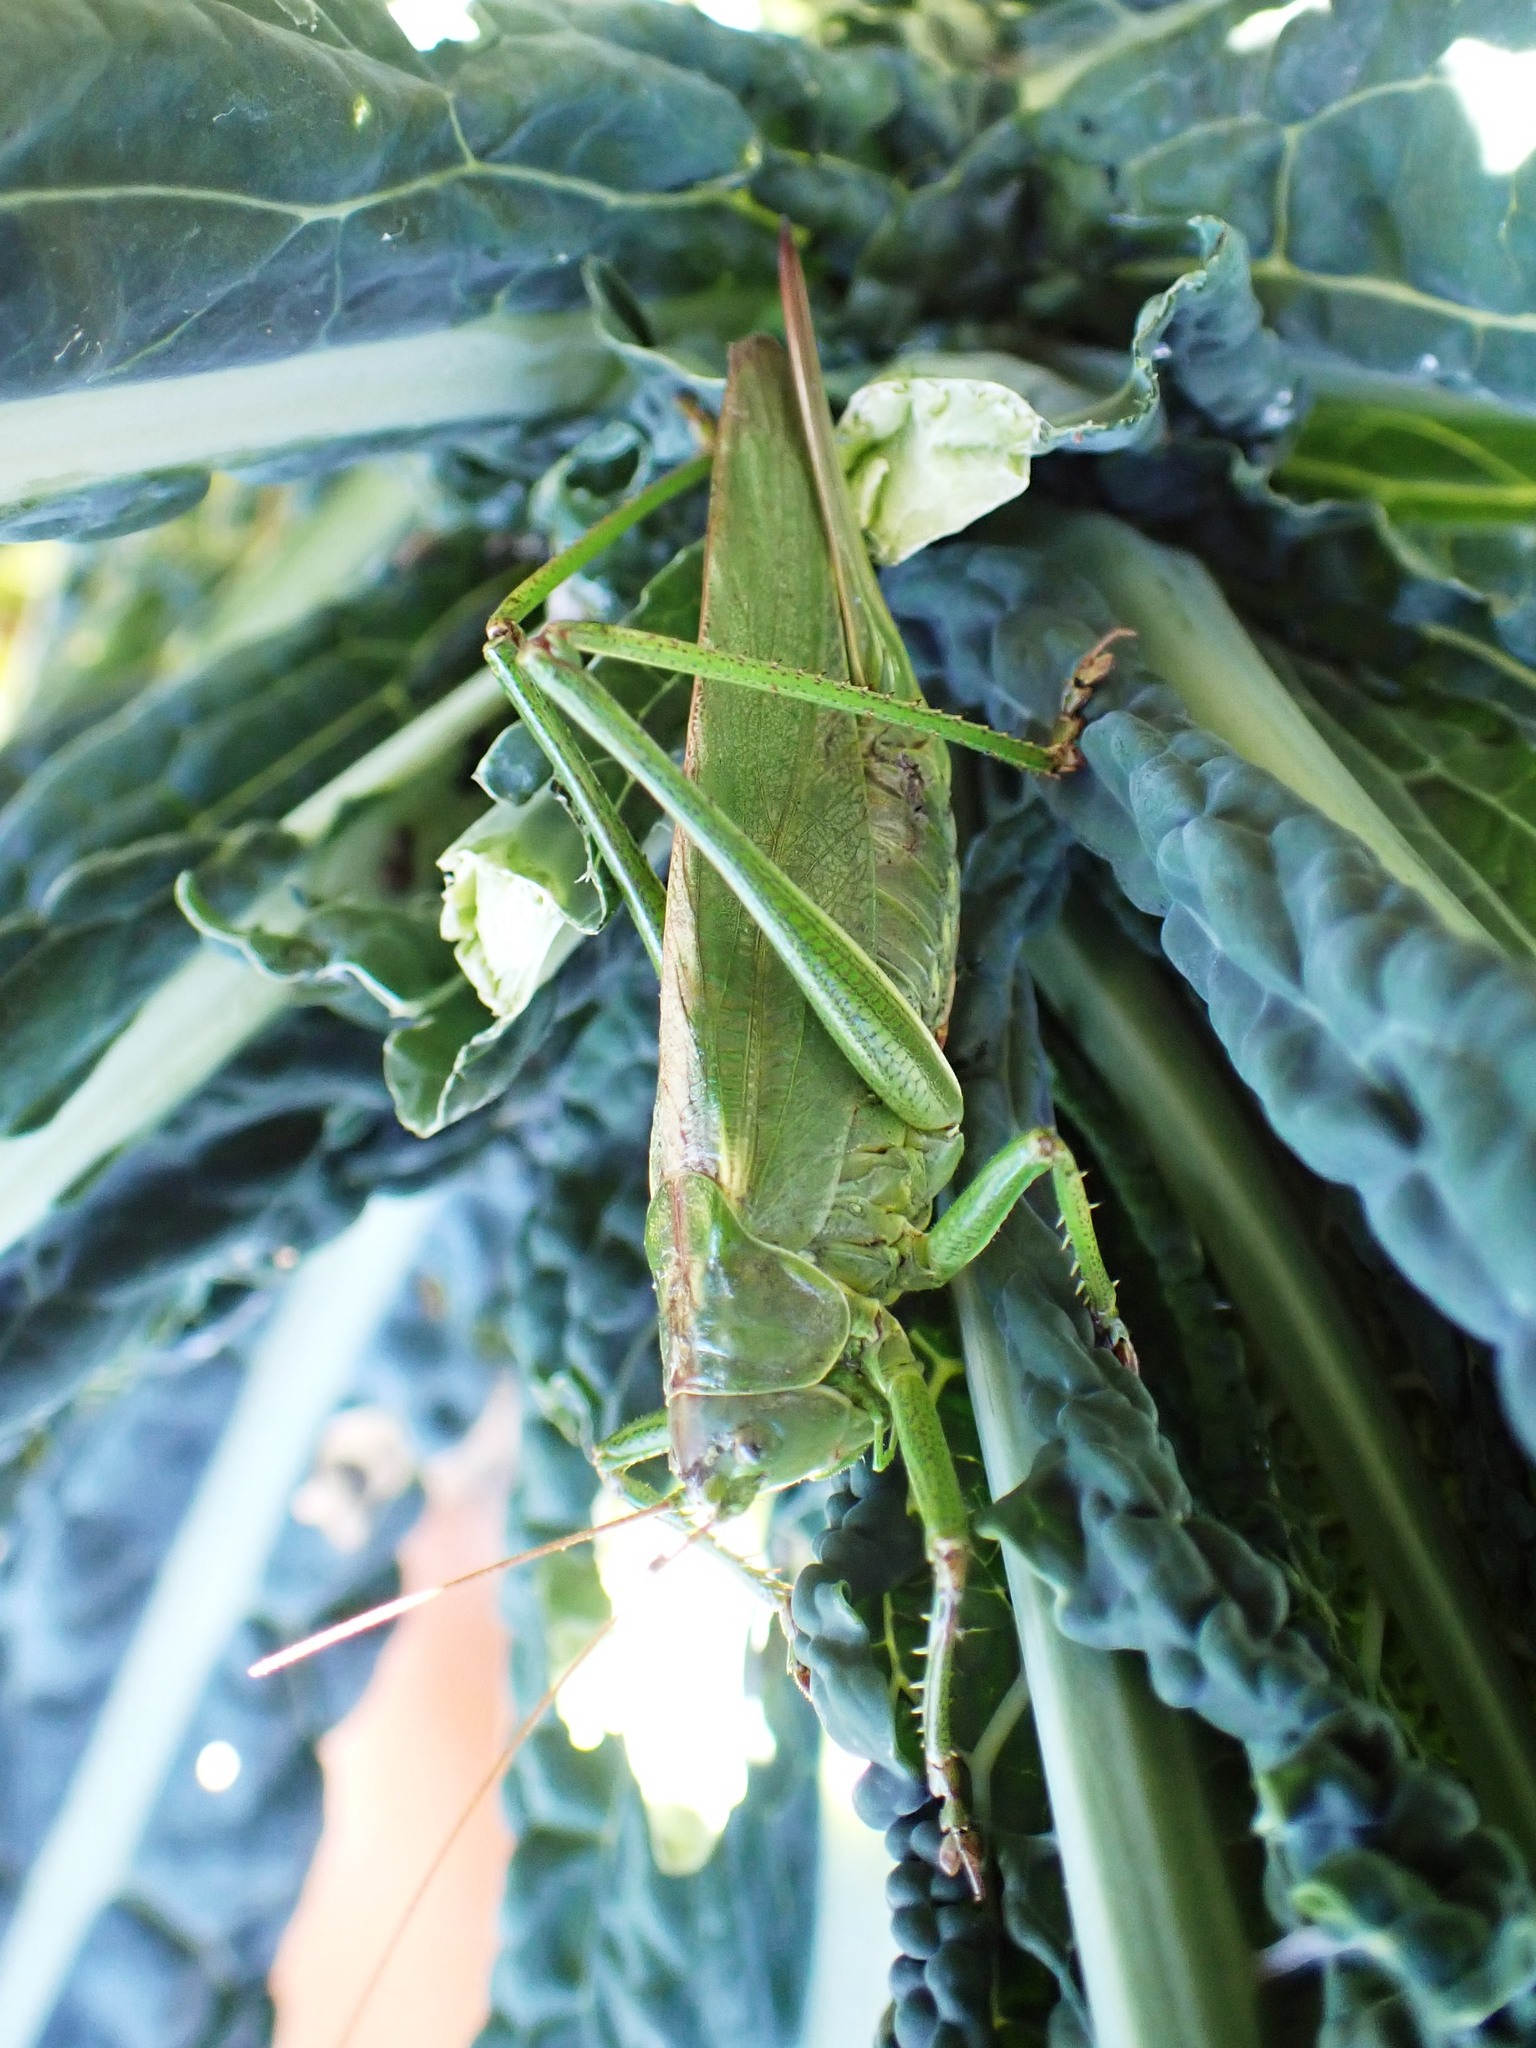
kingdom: Animalia
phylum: Arthropoda
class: Insecta
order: Orthoptera
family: Tettigoniidae
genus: Tettigonia
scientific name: Tettigonia viridissima
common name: Great green bush-cricket
